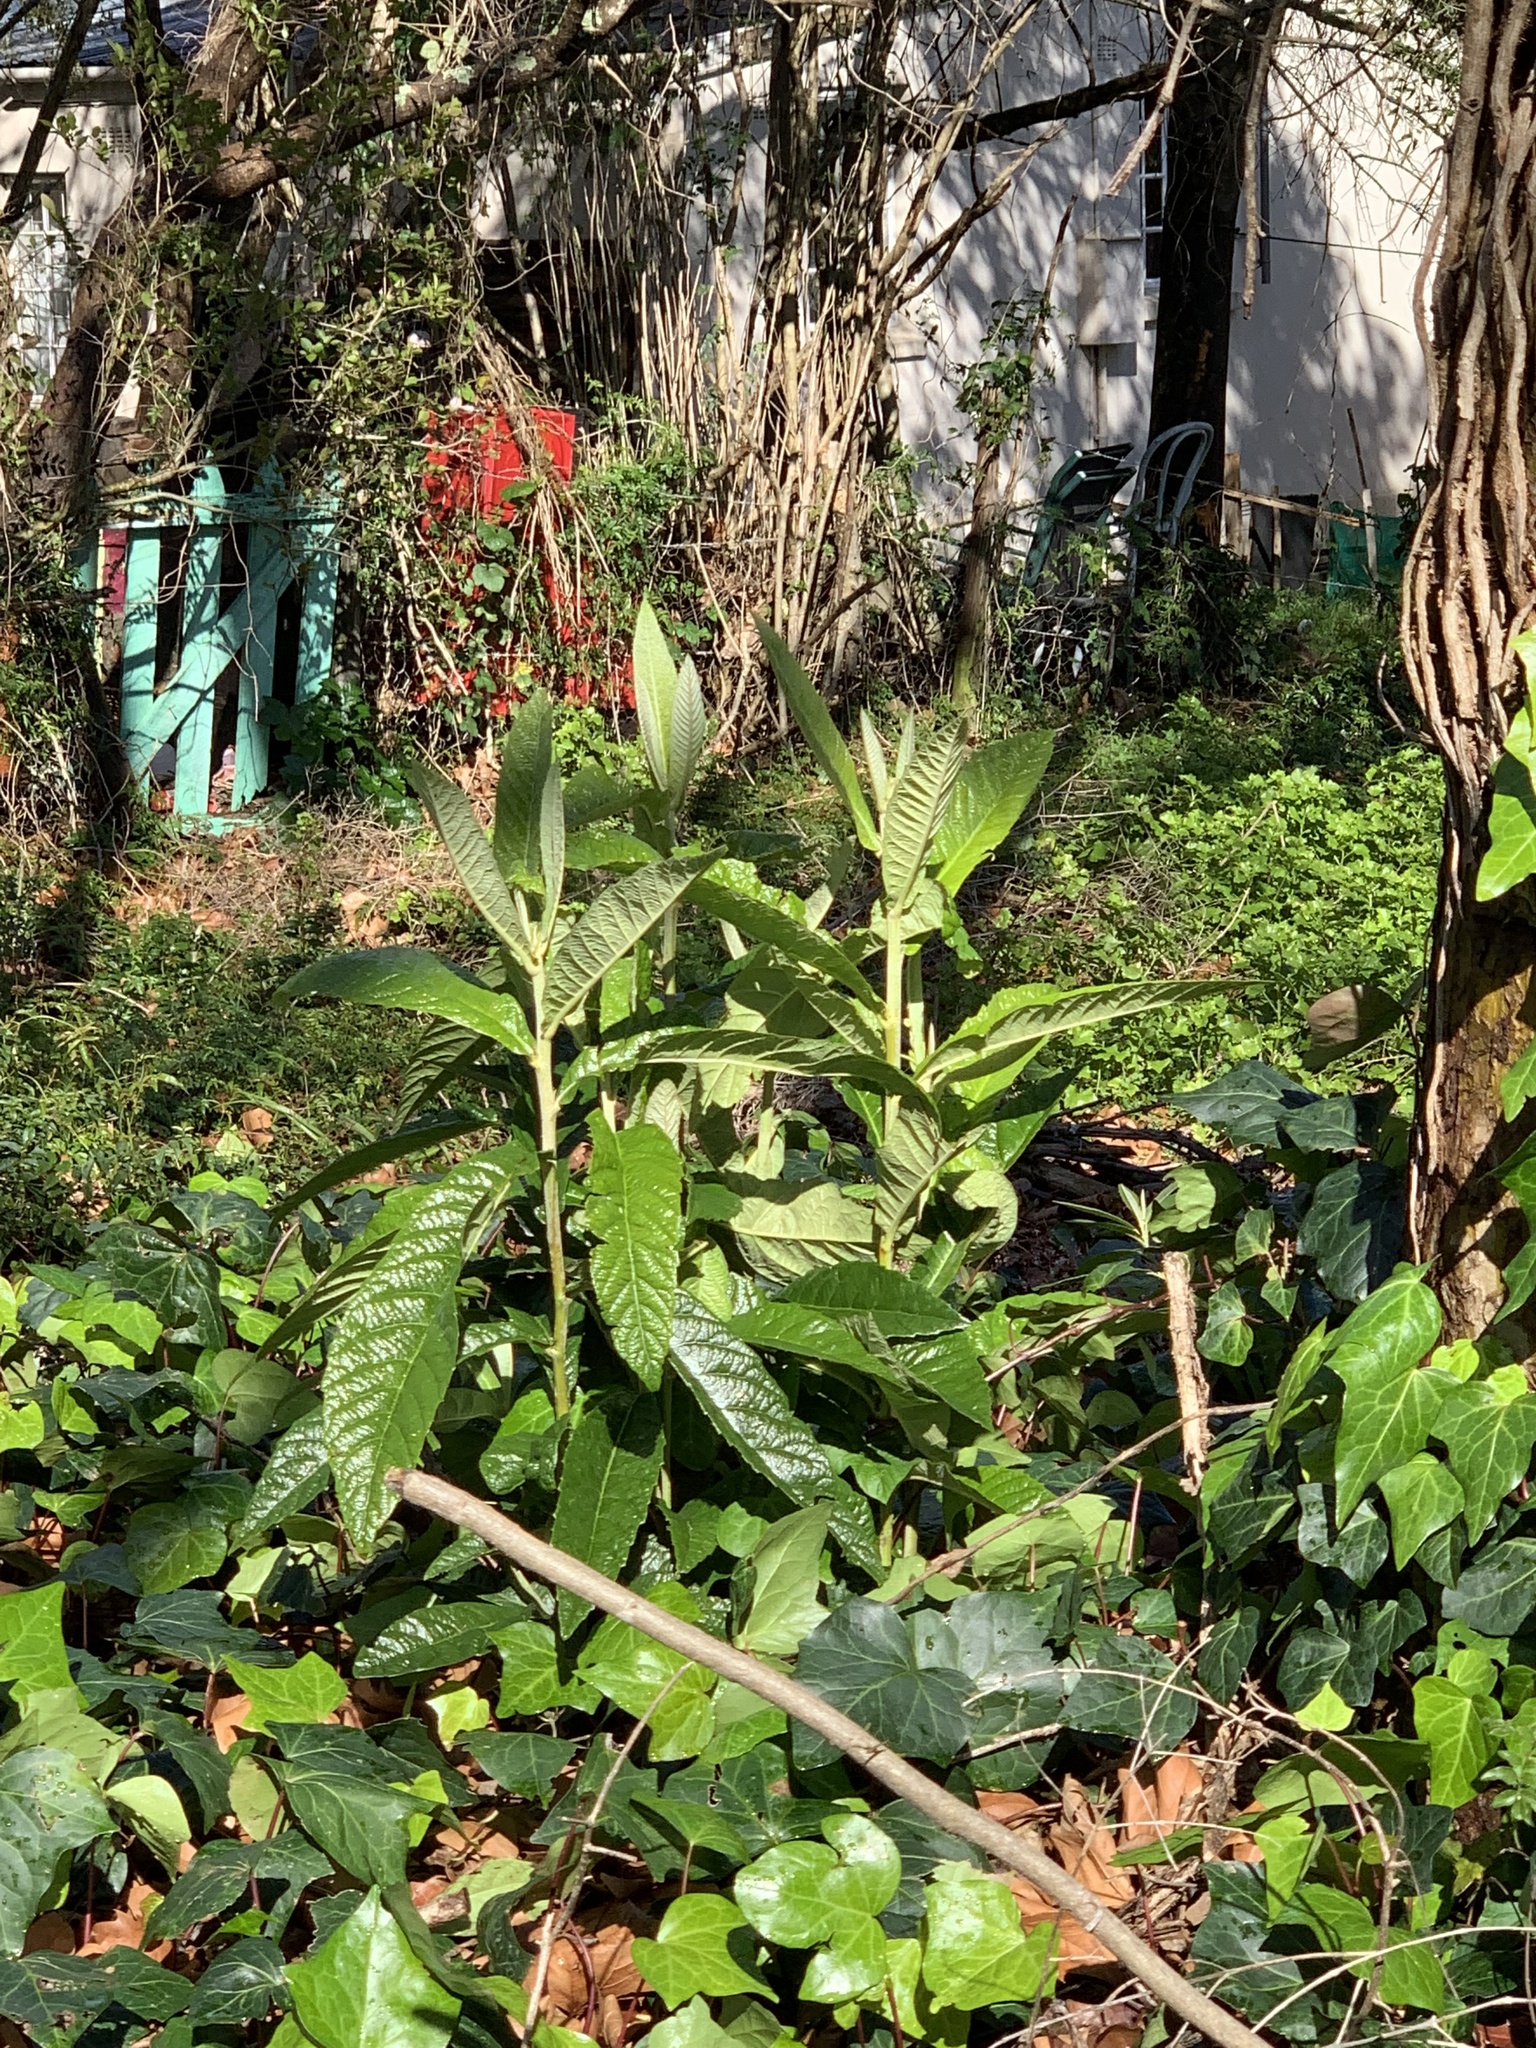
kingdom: Plantae
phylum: Tracheophyta
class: Magnoliopsida
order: Rosales
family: Rosaceae
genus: Rhaphiolepis
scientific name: Rhaphiolepis bibas
